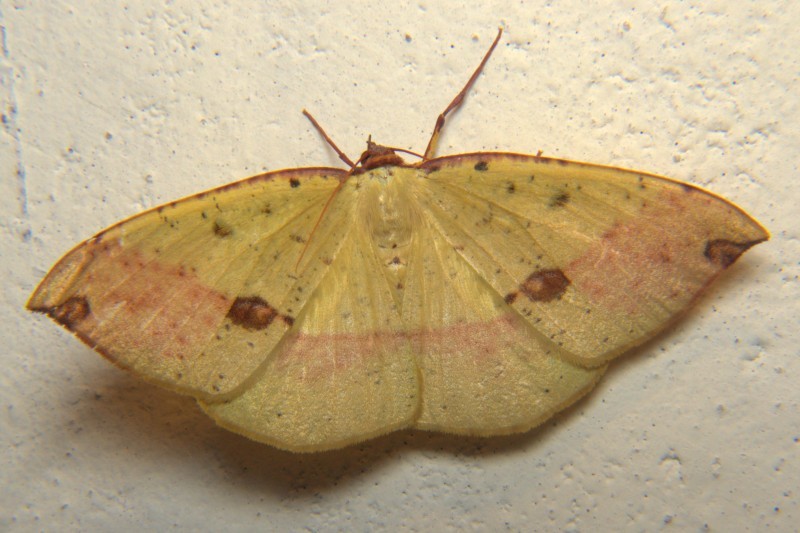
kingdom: Animalia
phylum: Arthropoda
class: Insecta
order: Lepidoptera
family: Geometridae
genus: Anthyperythra
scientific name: Anthyperythra hermearia
